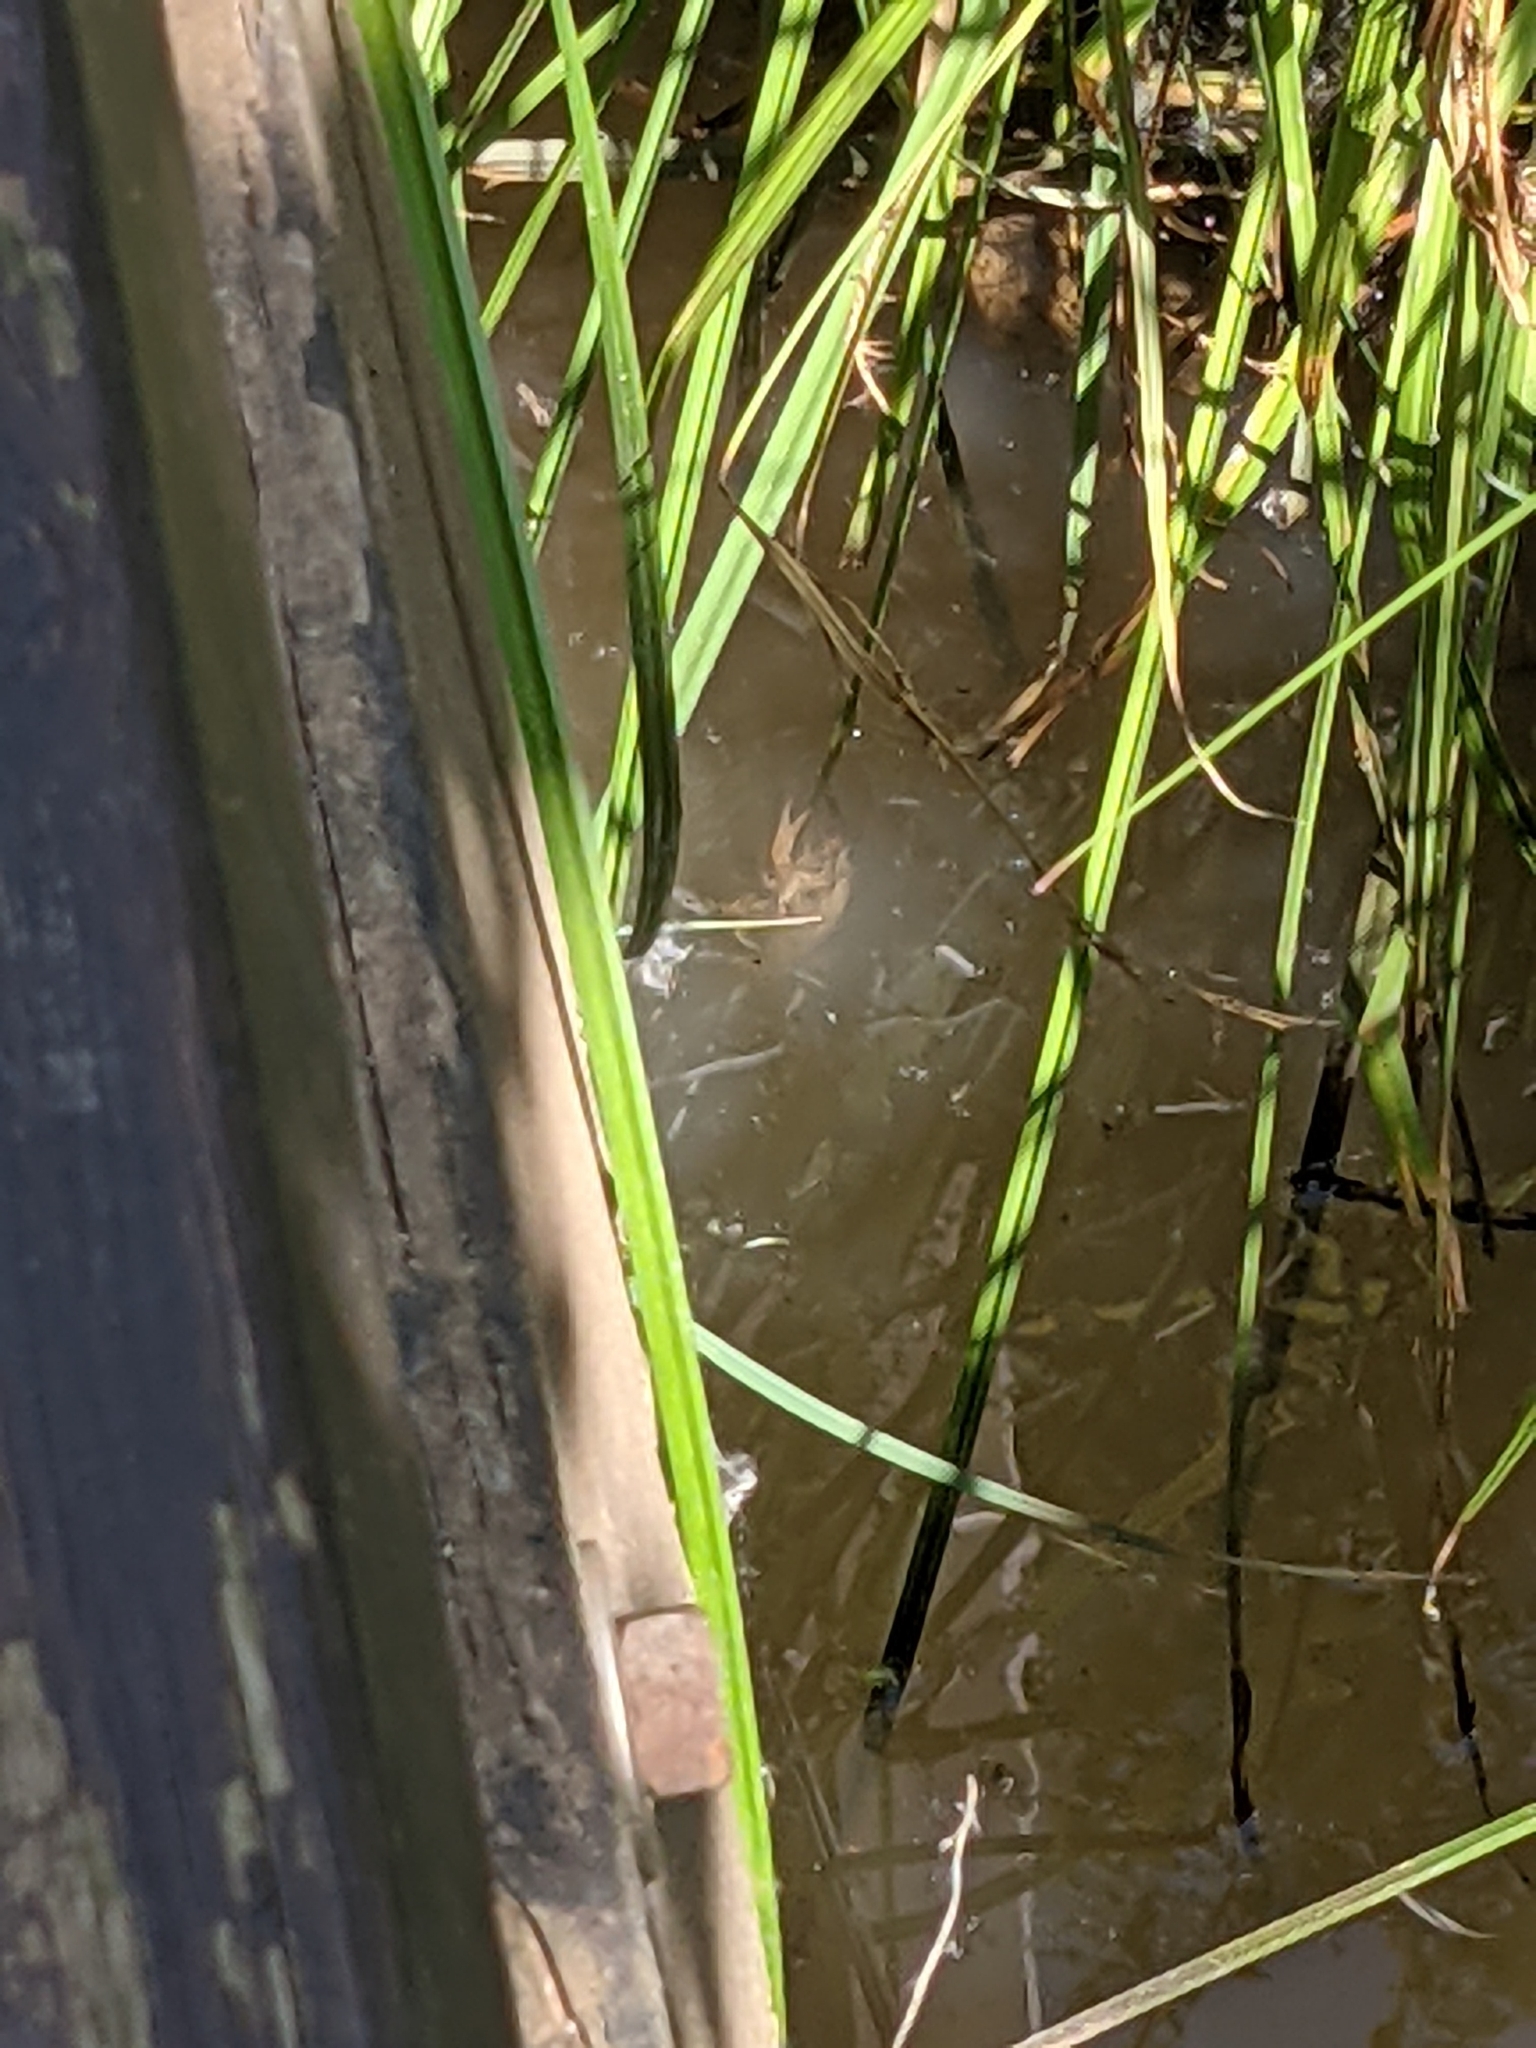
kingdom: Animalia
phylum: Arthropoda
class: Malacostraca
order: Decapoda
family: Cambaridae
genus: Procambarus
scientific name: Procambarus clarkii
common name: Red swamp crayfish
